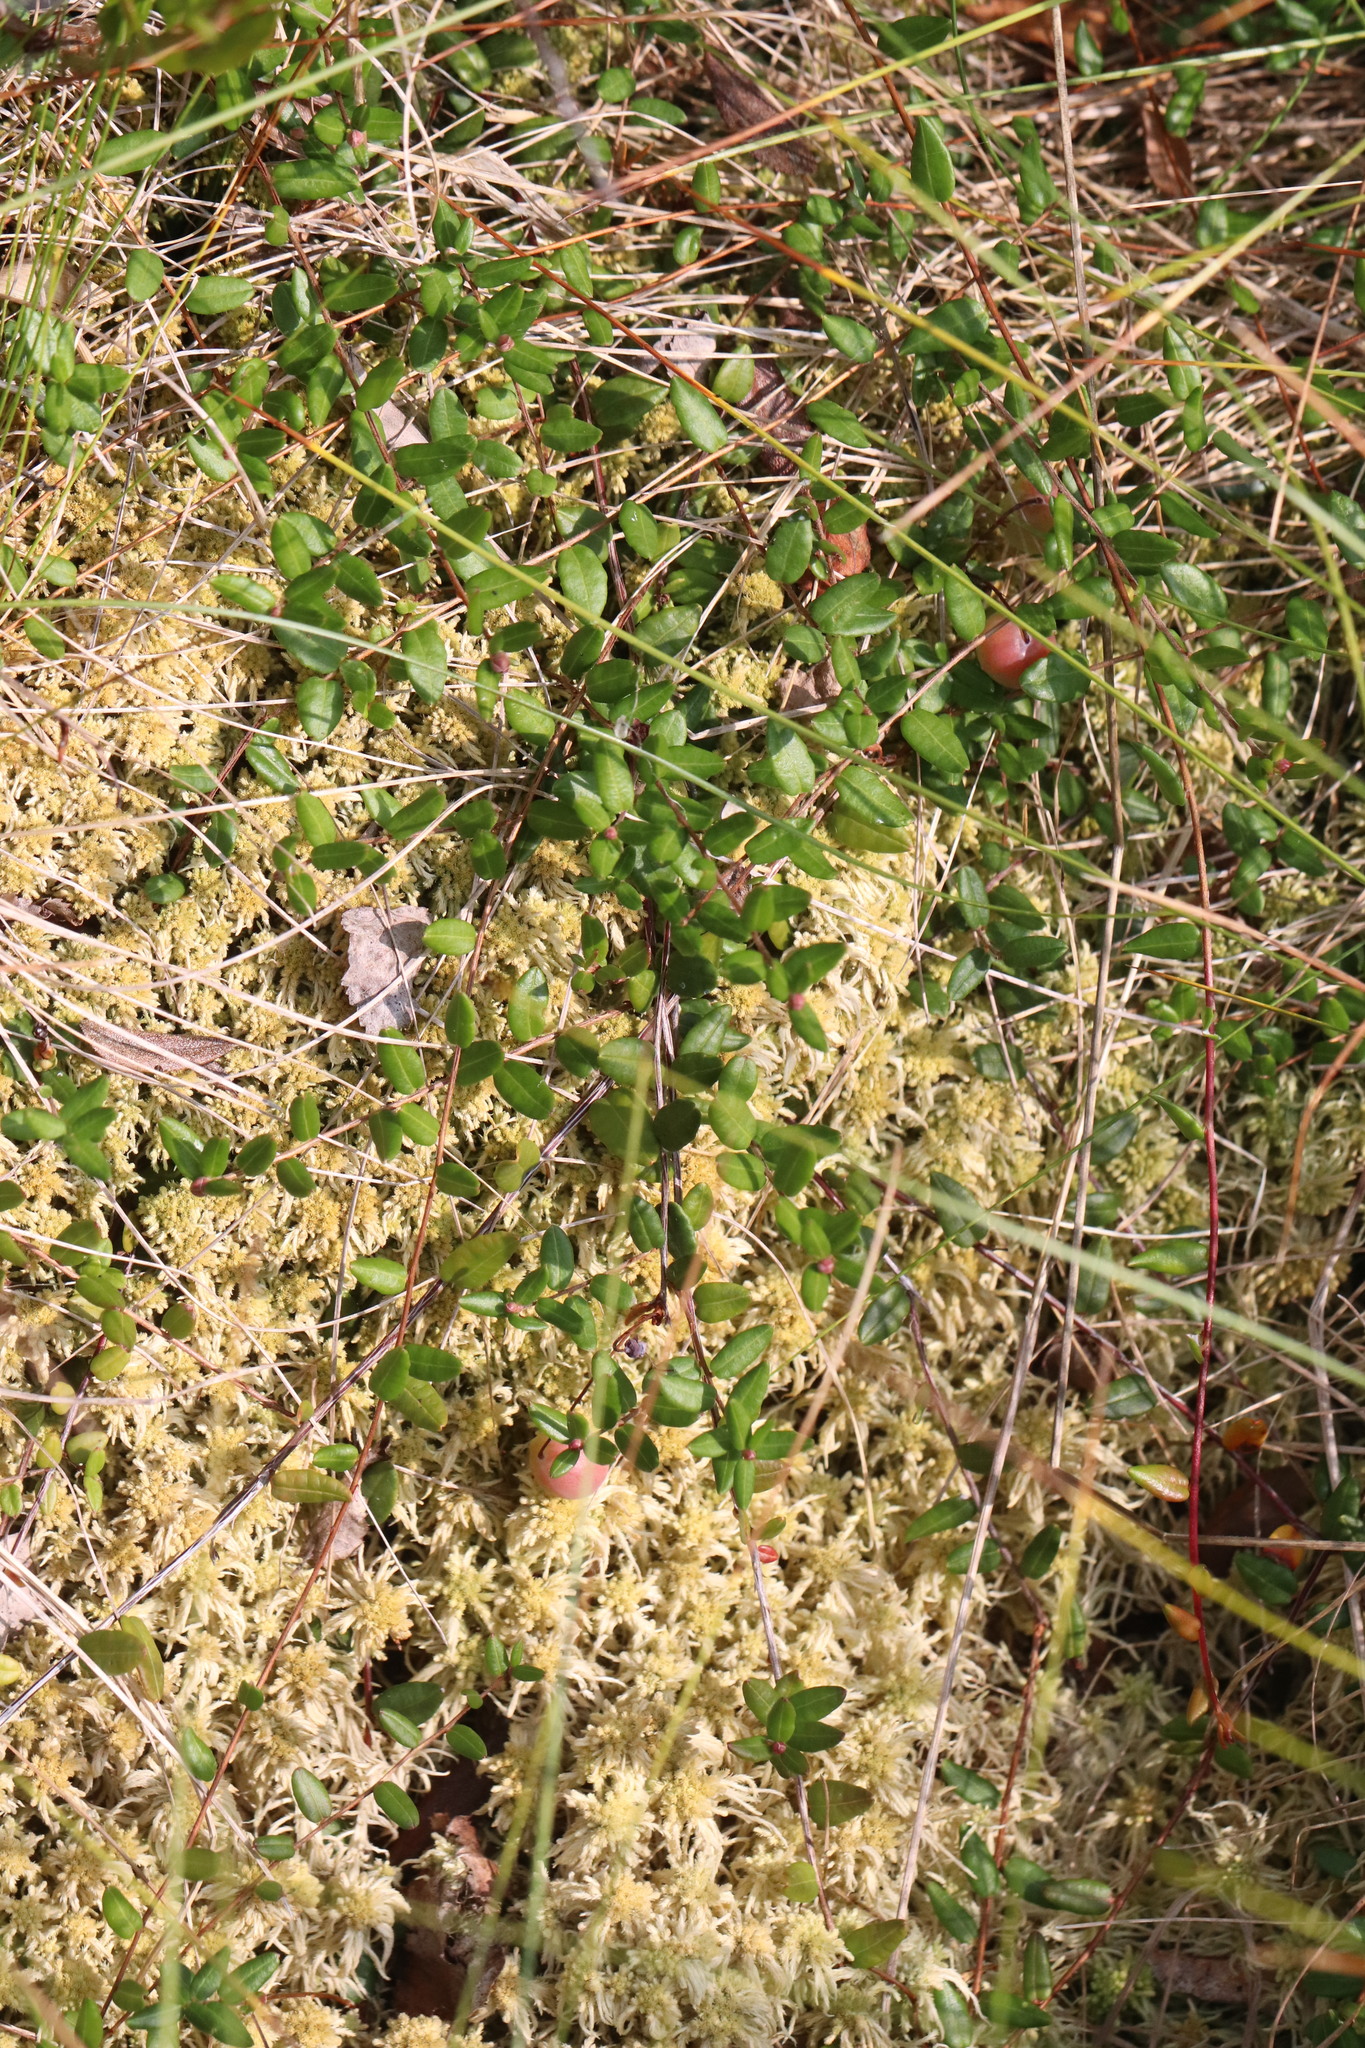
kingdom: Plantae
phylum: Tracheophyta
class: Magnoliopsida
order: Ericales
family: Ericaceae
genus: Vaccinium
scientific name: Vaccinium oxycoccos
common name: Cranberry
